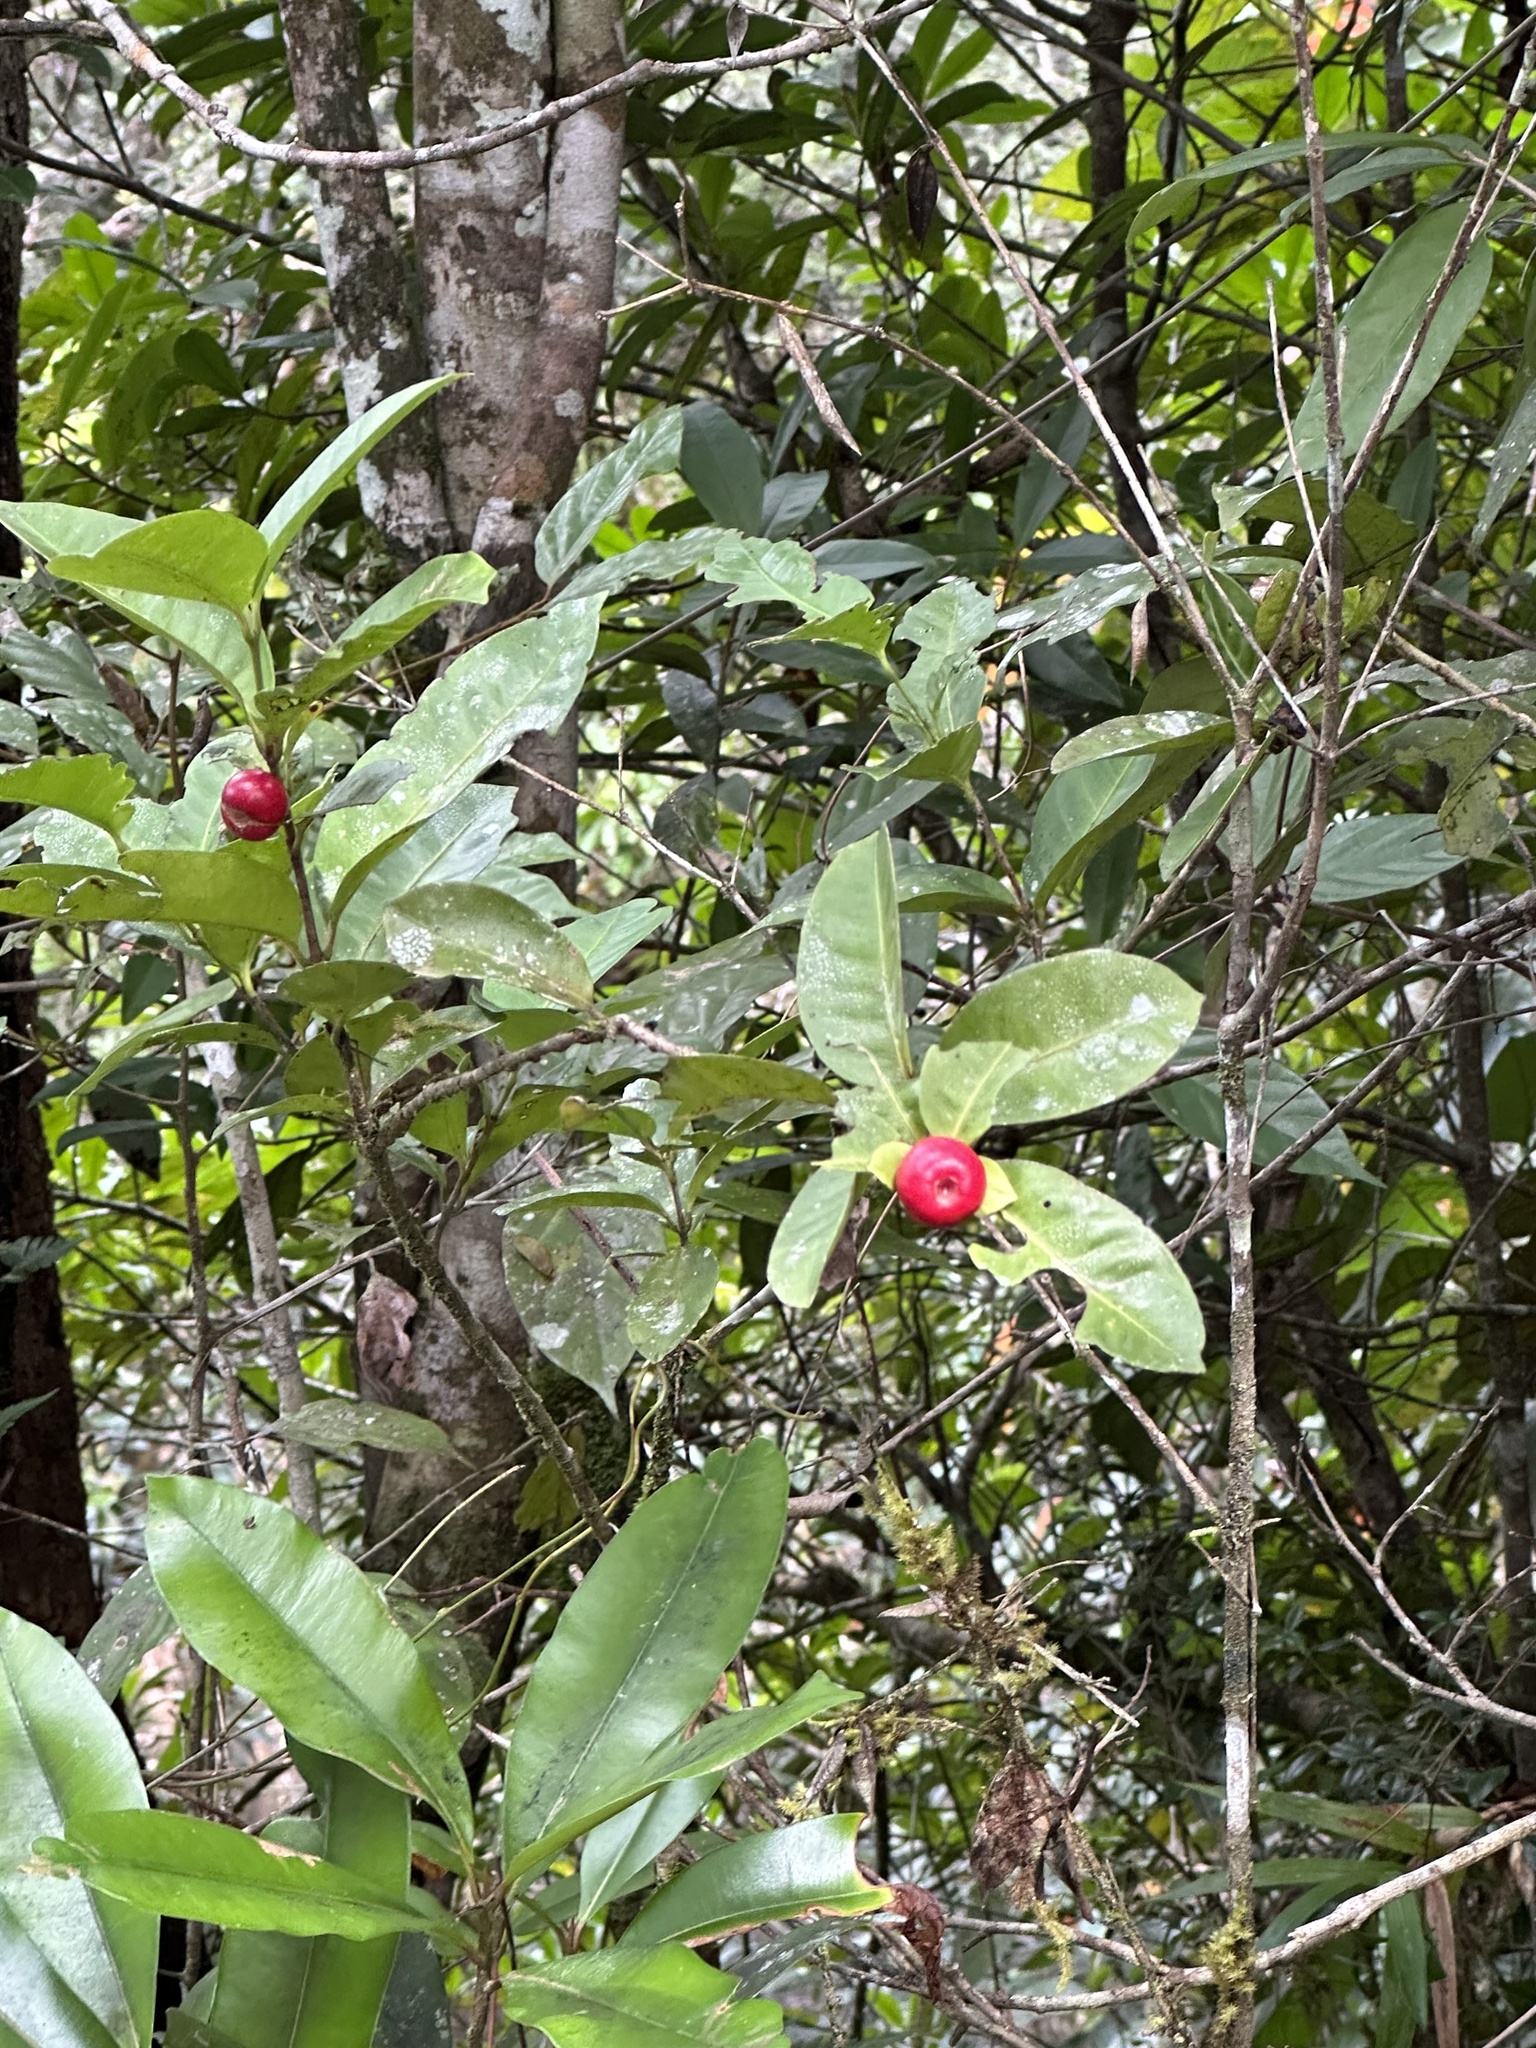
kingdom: Plantae
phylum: Tracheophyta
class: Magnoliopsida
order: Gentianales
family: Rubiaceae
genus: Ixora
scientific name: Ixora biflora
